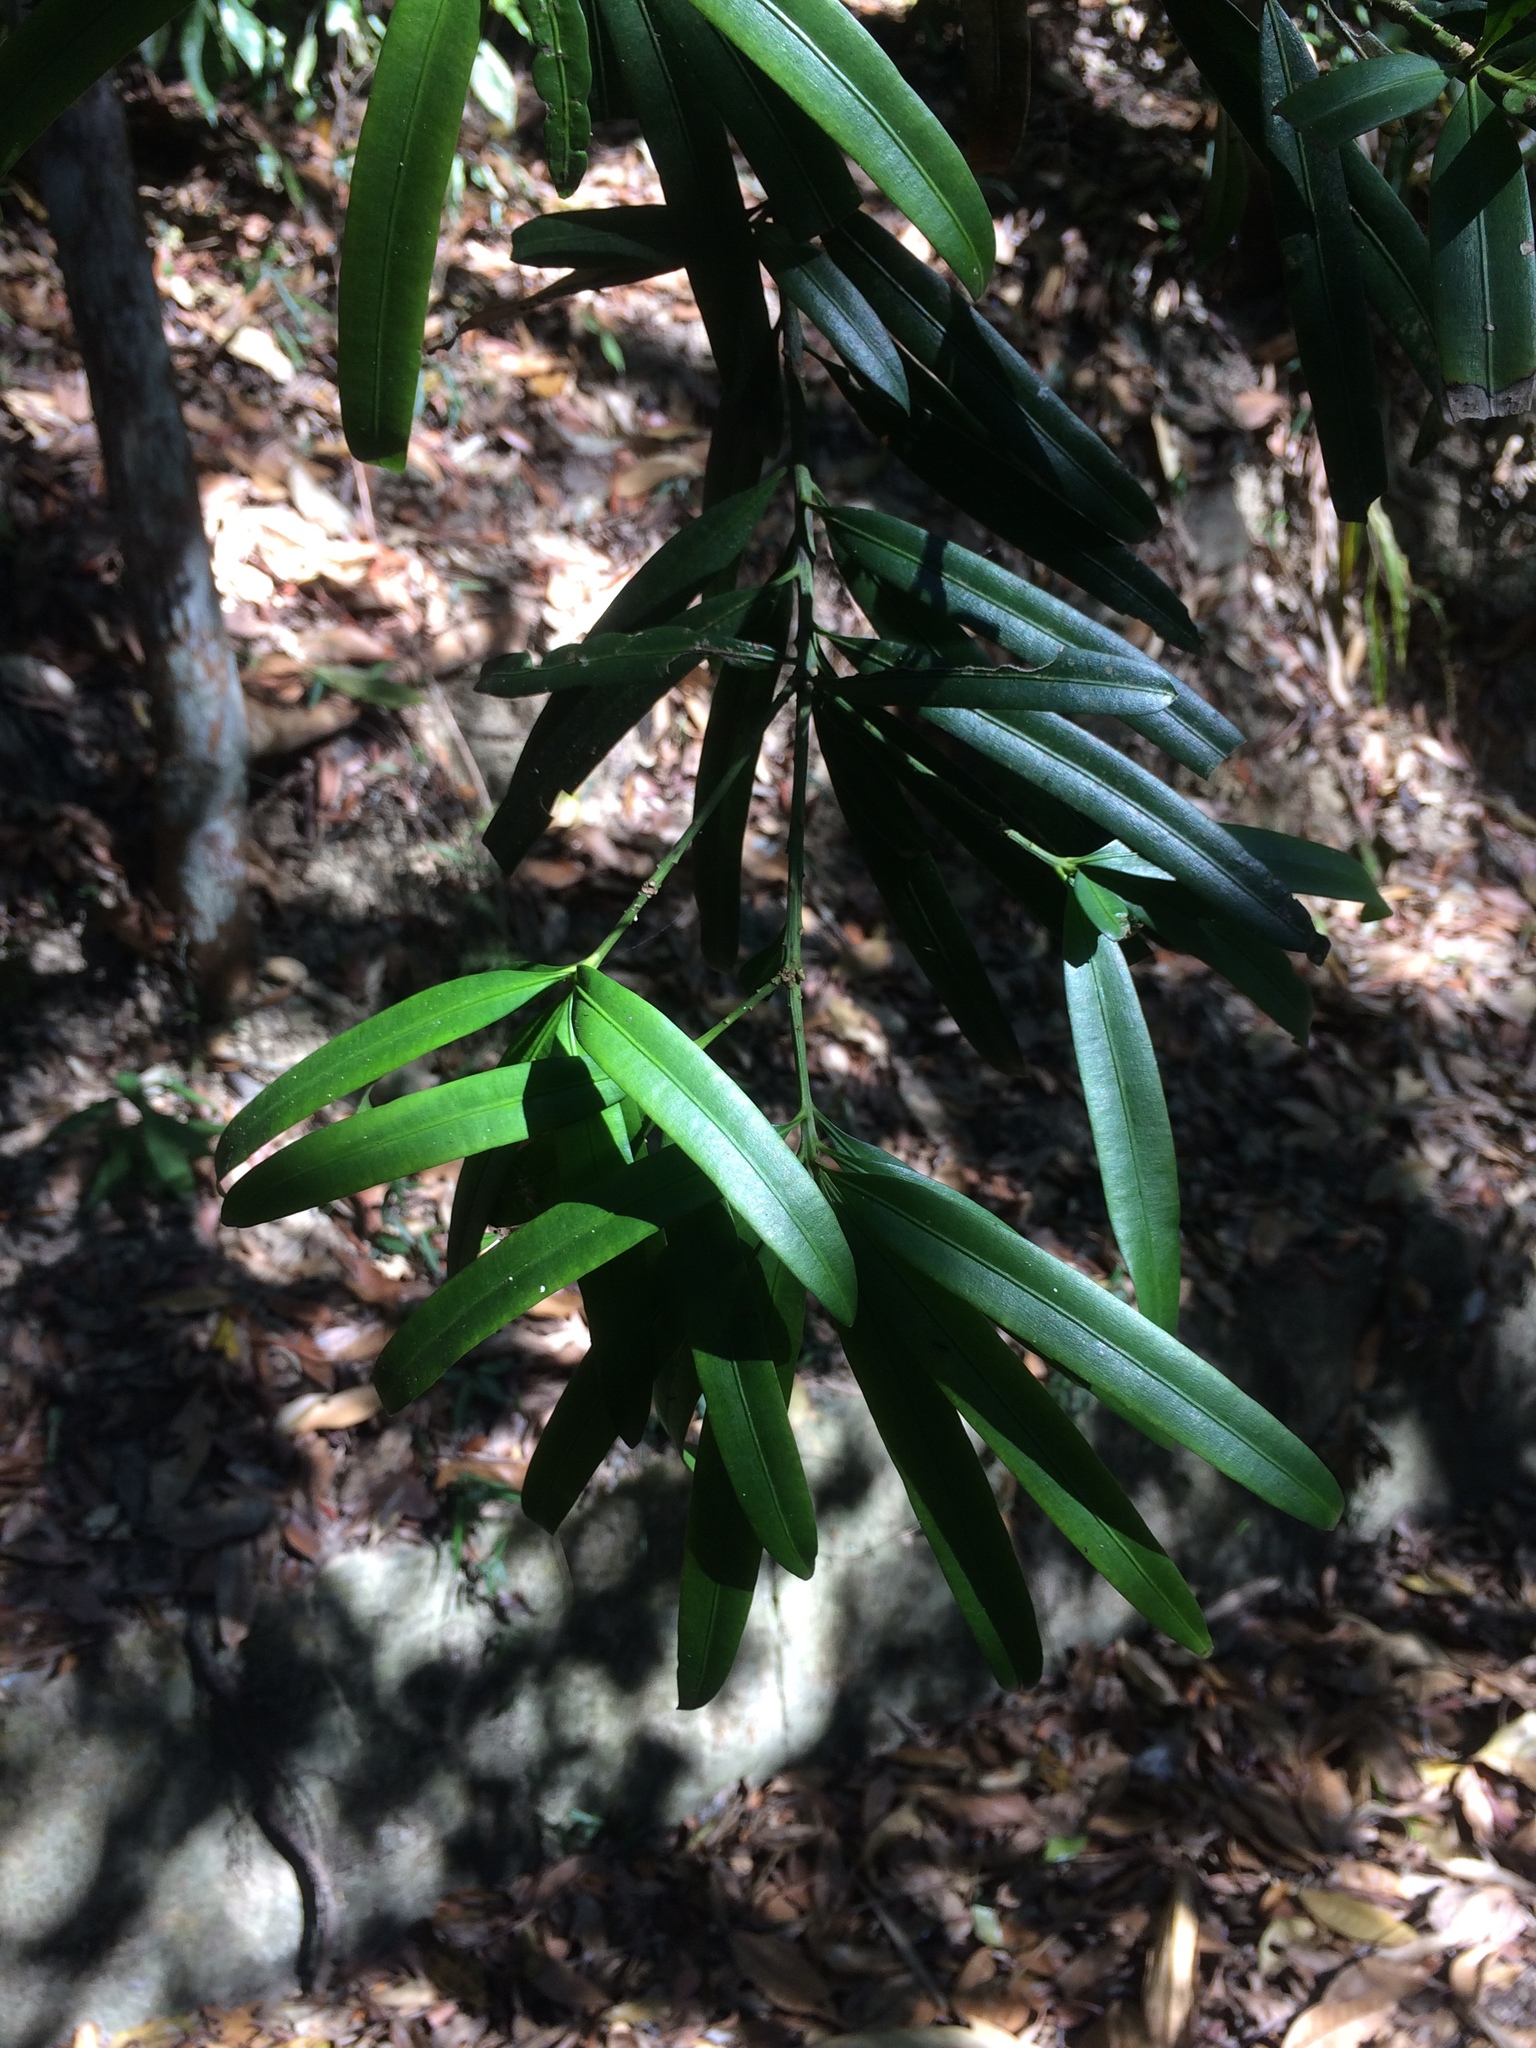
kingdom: Plantae
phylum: Tracheophyta
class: Pinopsida
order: Pinales
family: Podocarpaceae
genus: Podocarpus
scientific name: Podocarpus nakaii
